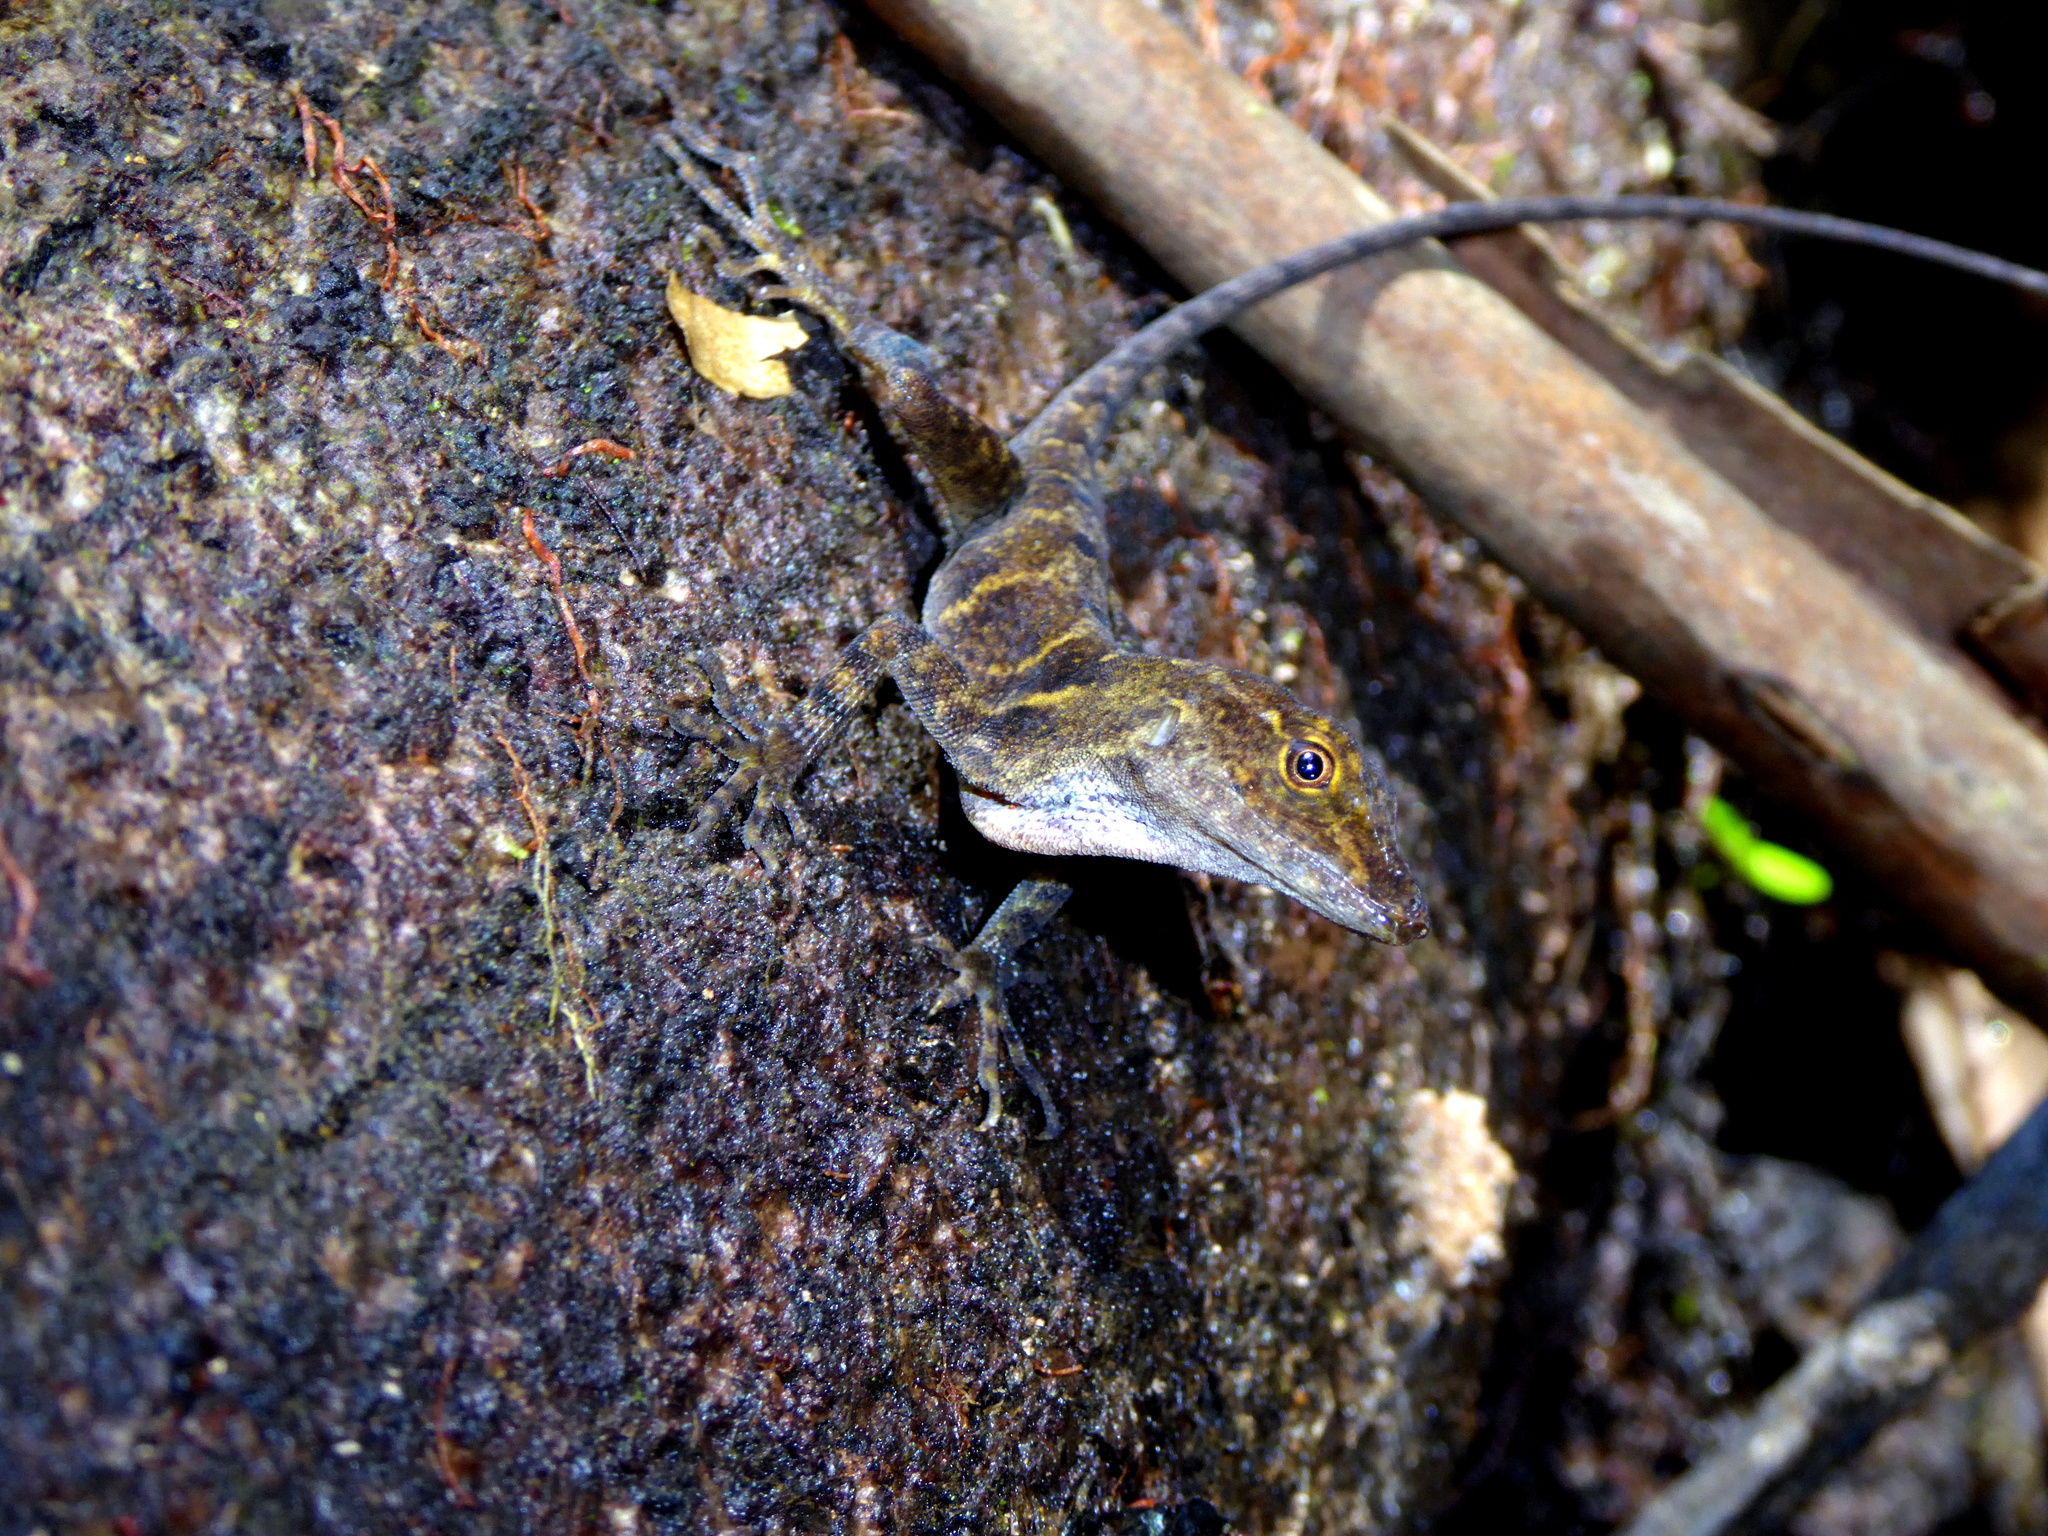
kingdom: Animalia
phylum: Chordata
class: Squamata
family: Dactyloidae
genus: Anolis
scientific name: Anolis cobanensis
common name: Coban anole
